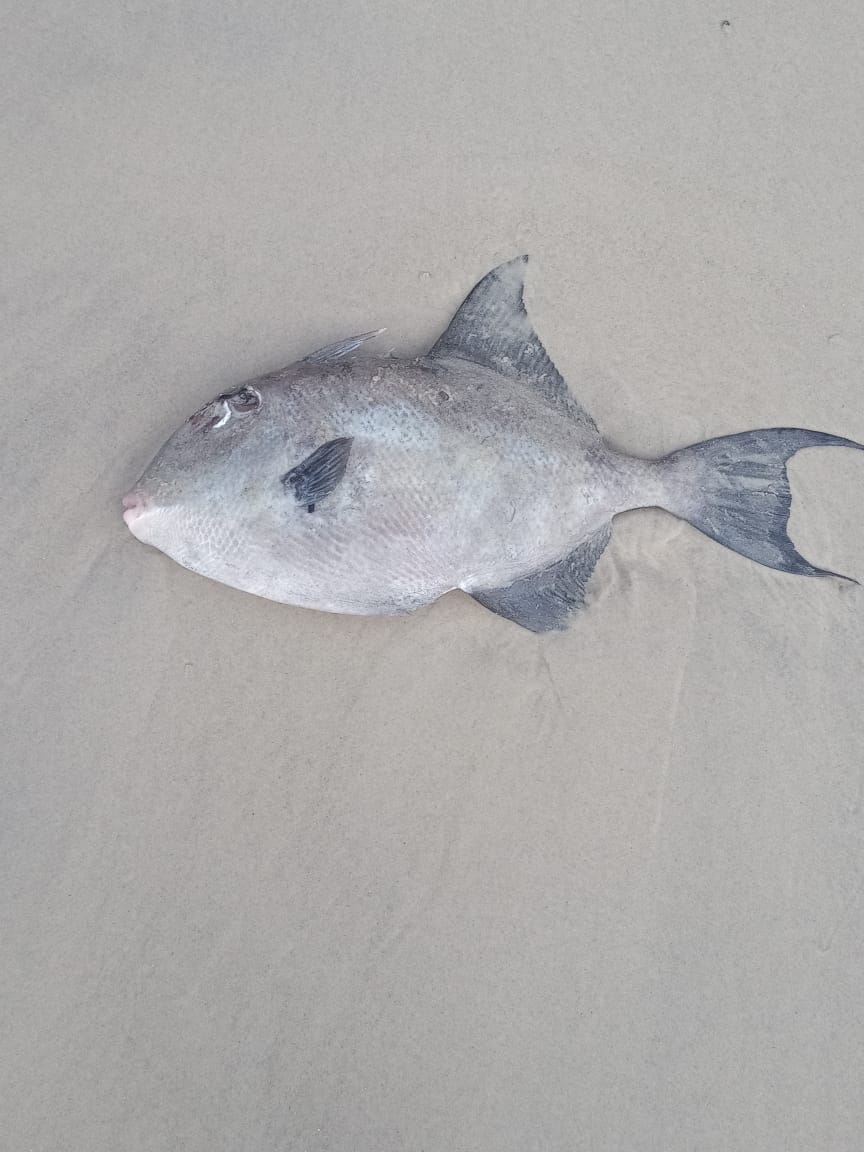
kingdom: Animalia
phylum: Chordata
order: Tetraodontiformes
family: Balistidae
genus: Balistes
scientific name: Balistes capriscus
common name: Grey triggerfish
